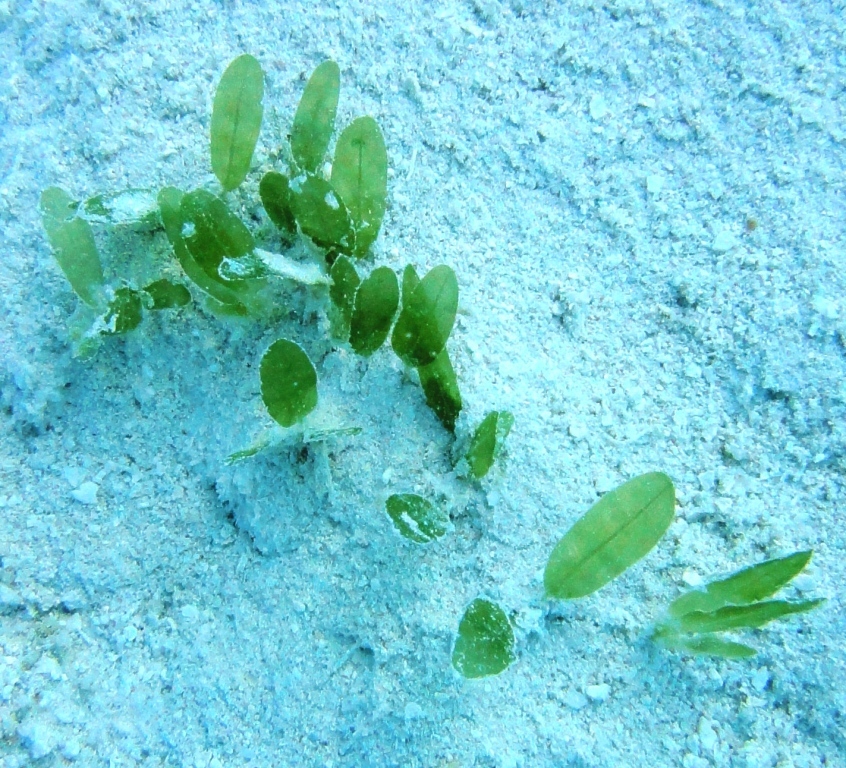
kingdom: Plantae
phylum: Tracheophyta
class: Liliopsida
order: Alismatales
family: Hydrocharitaceae
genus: Halophila
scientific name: Halophila decipiens
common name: Paddle grass
